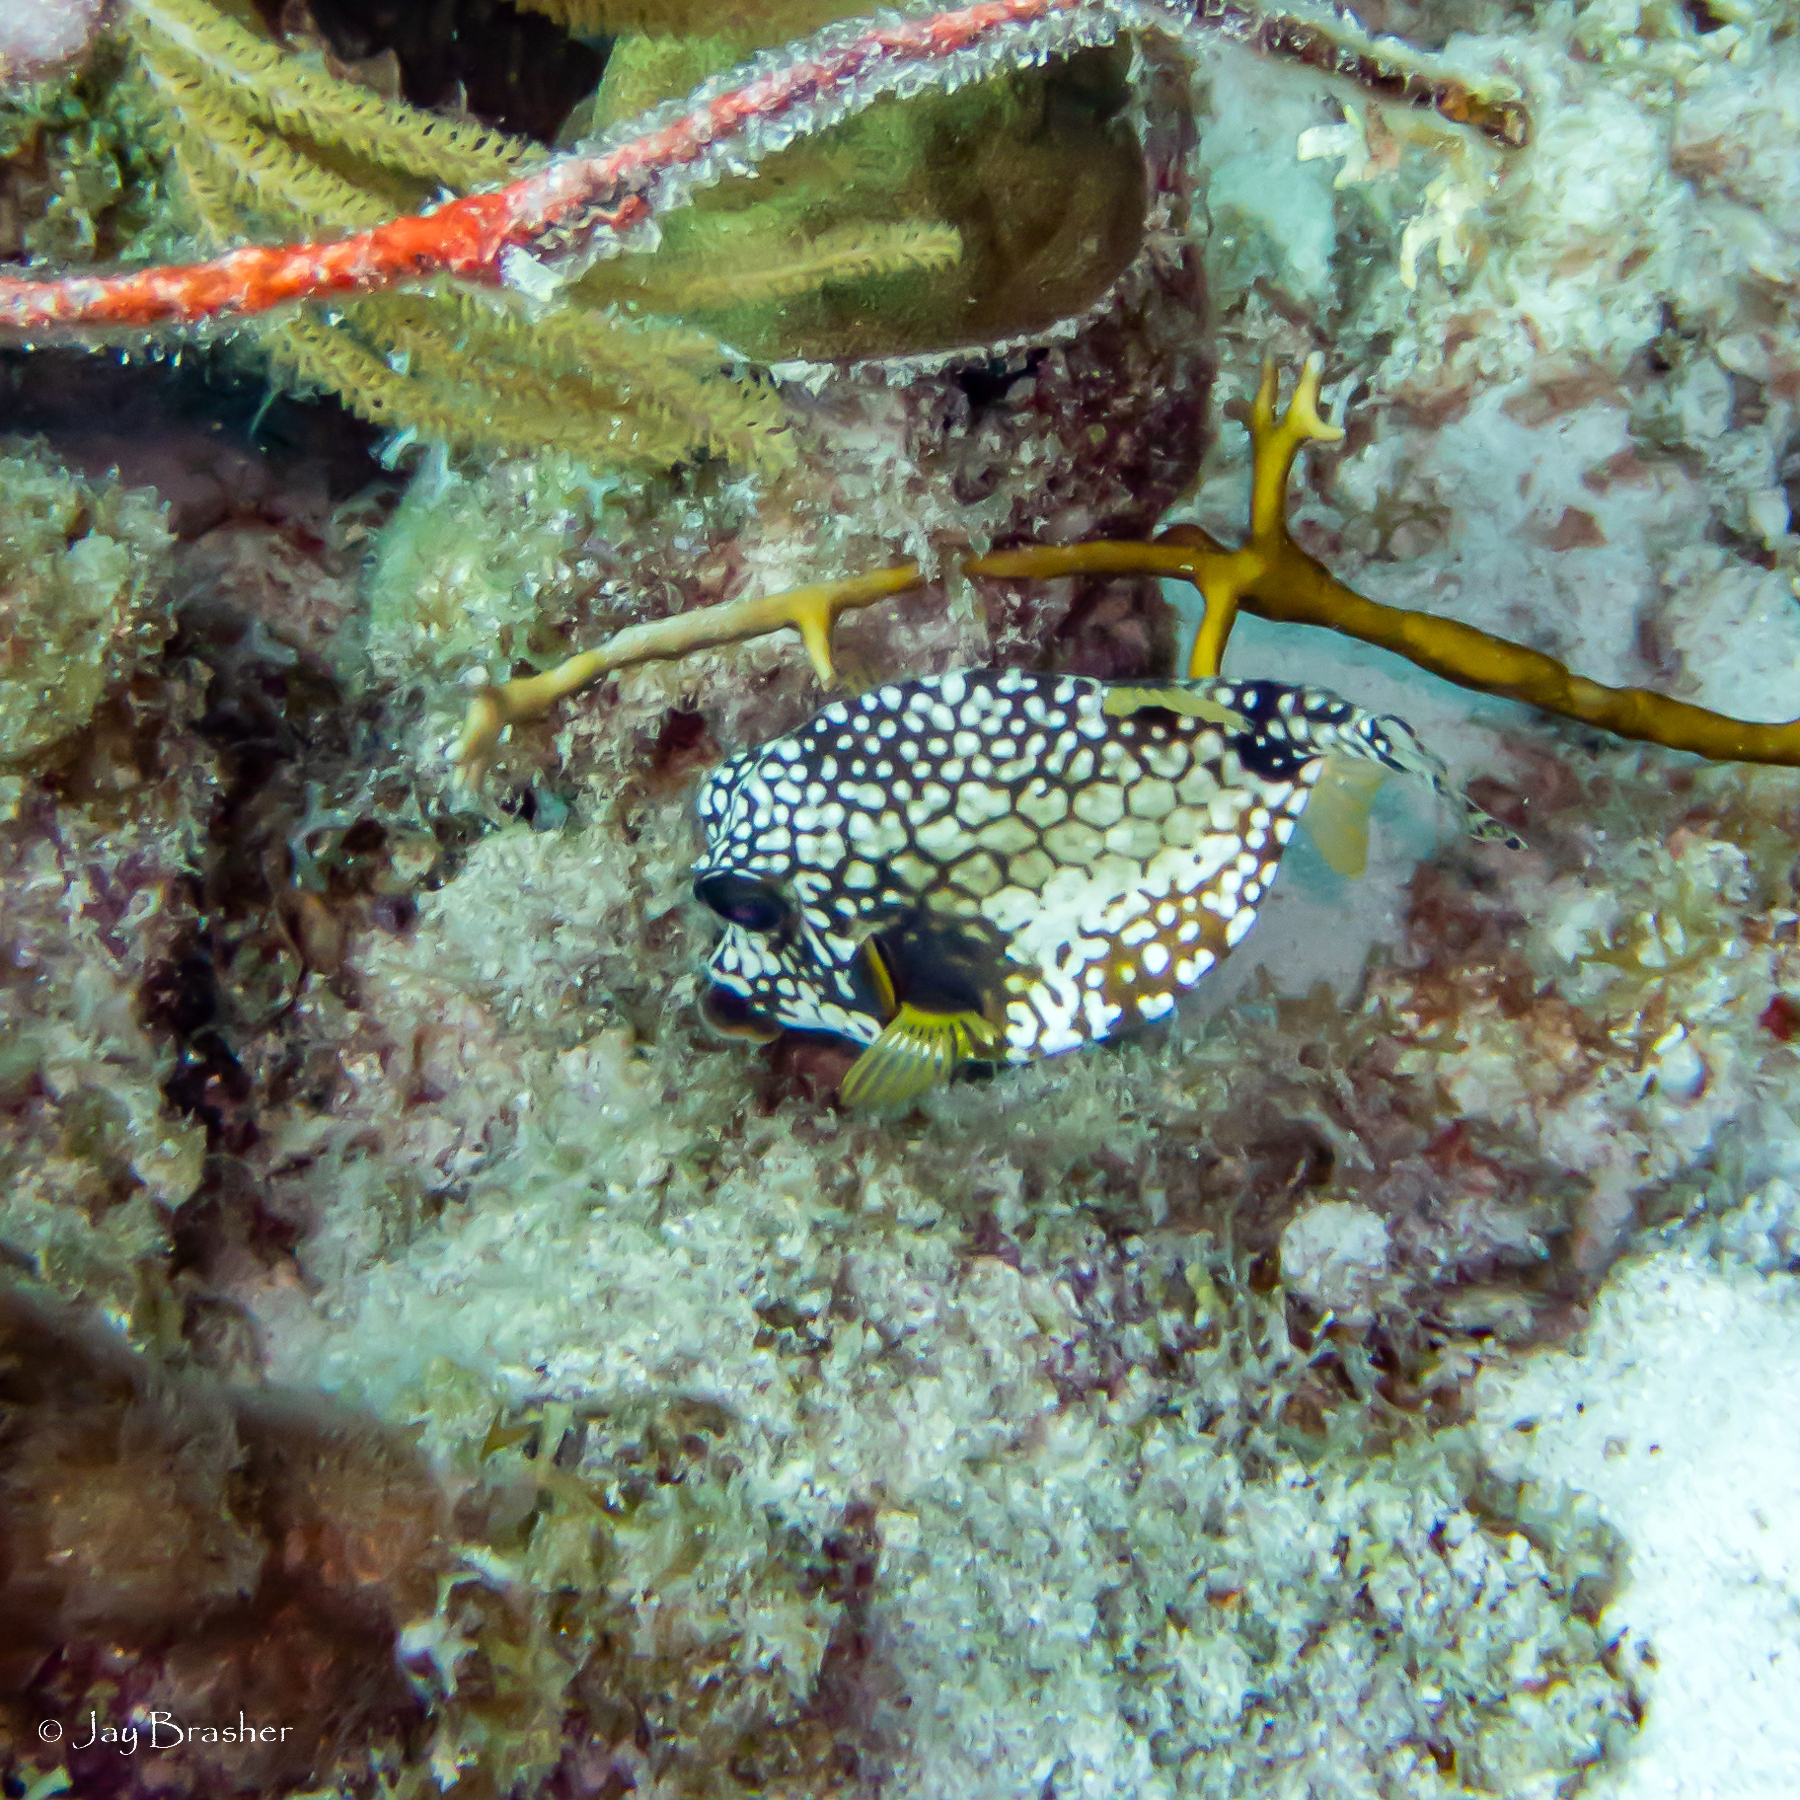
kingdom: Animalia
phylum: Chordata
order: Tetraodontiformes
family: Ostraciidae
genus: Lactophrys
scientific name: Lactophrys triqueter
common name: Smooth trunkfish
